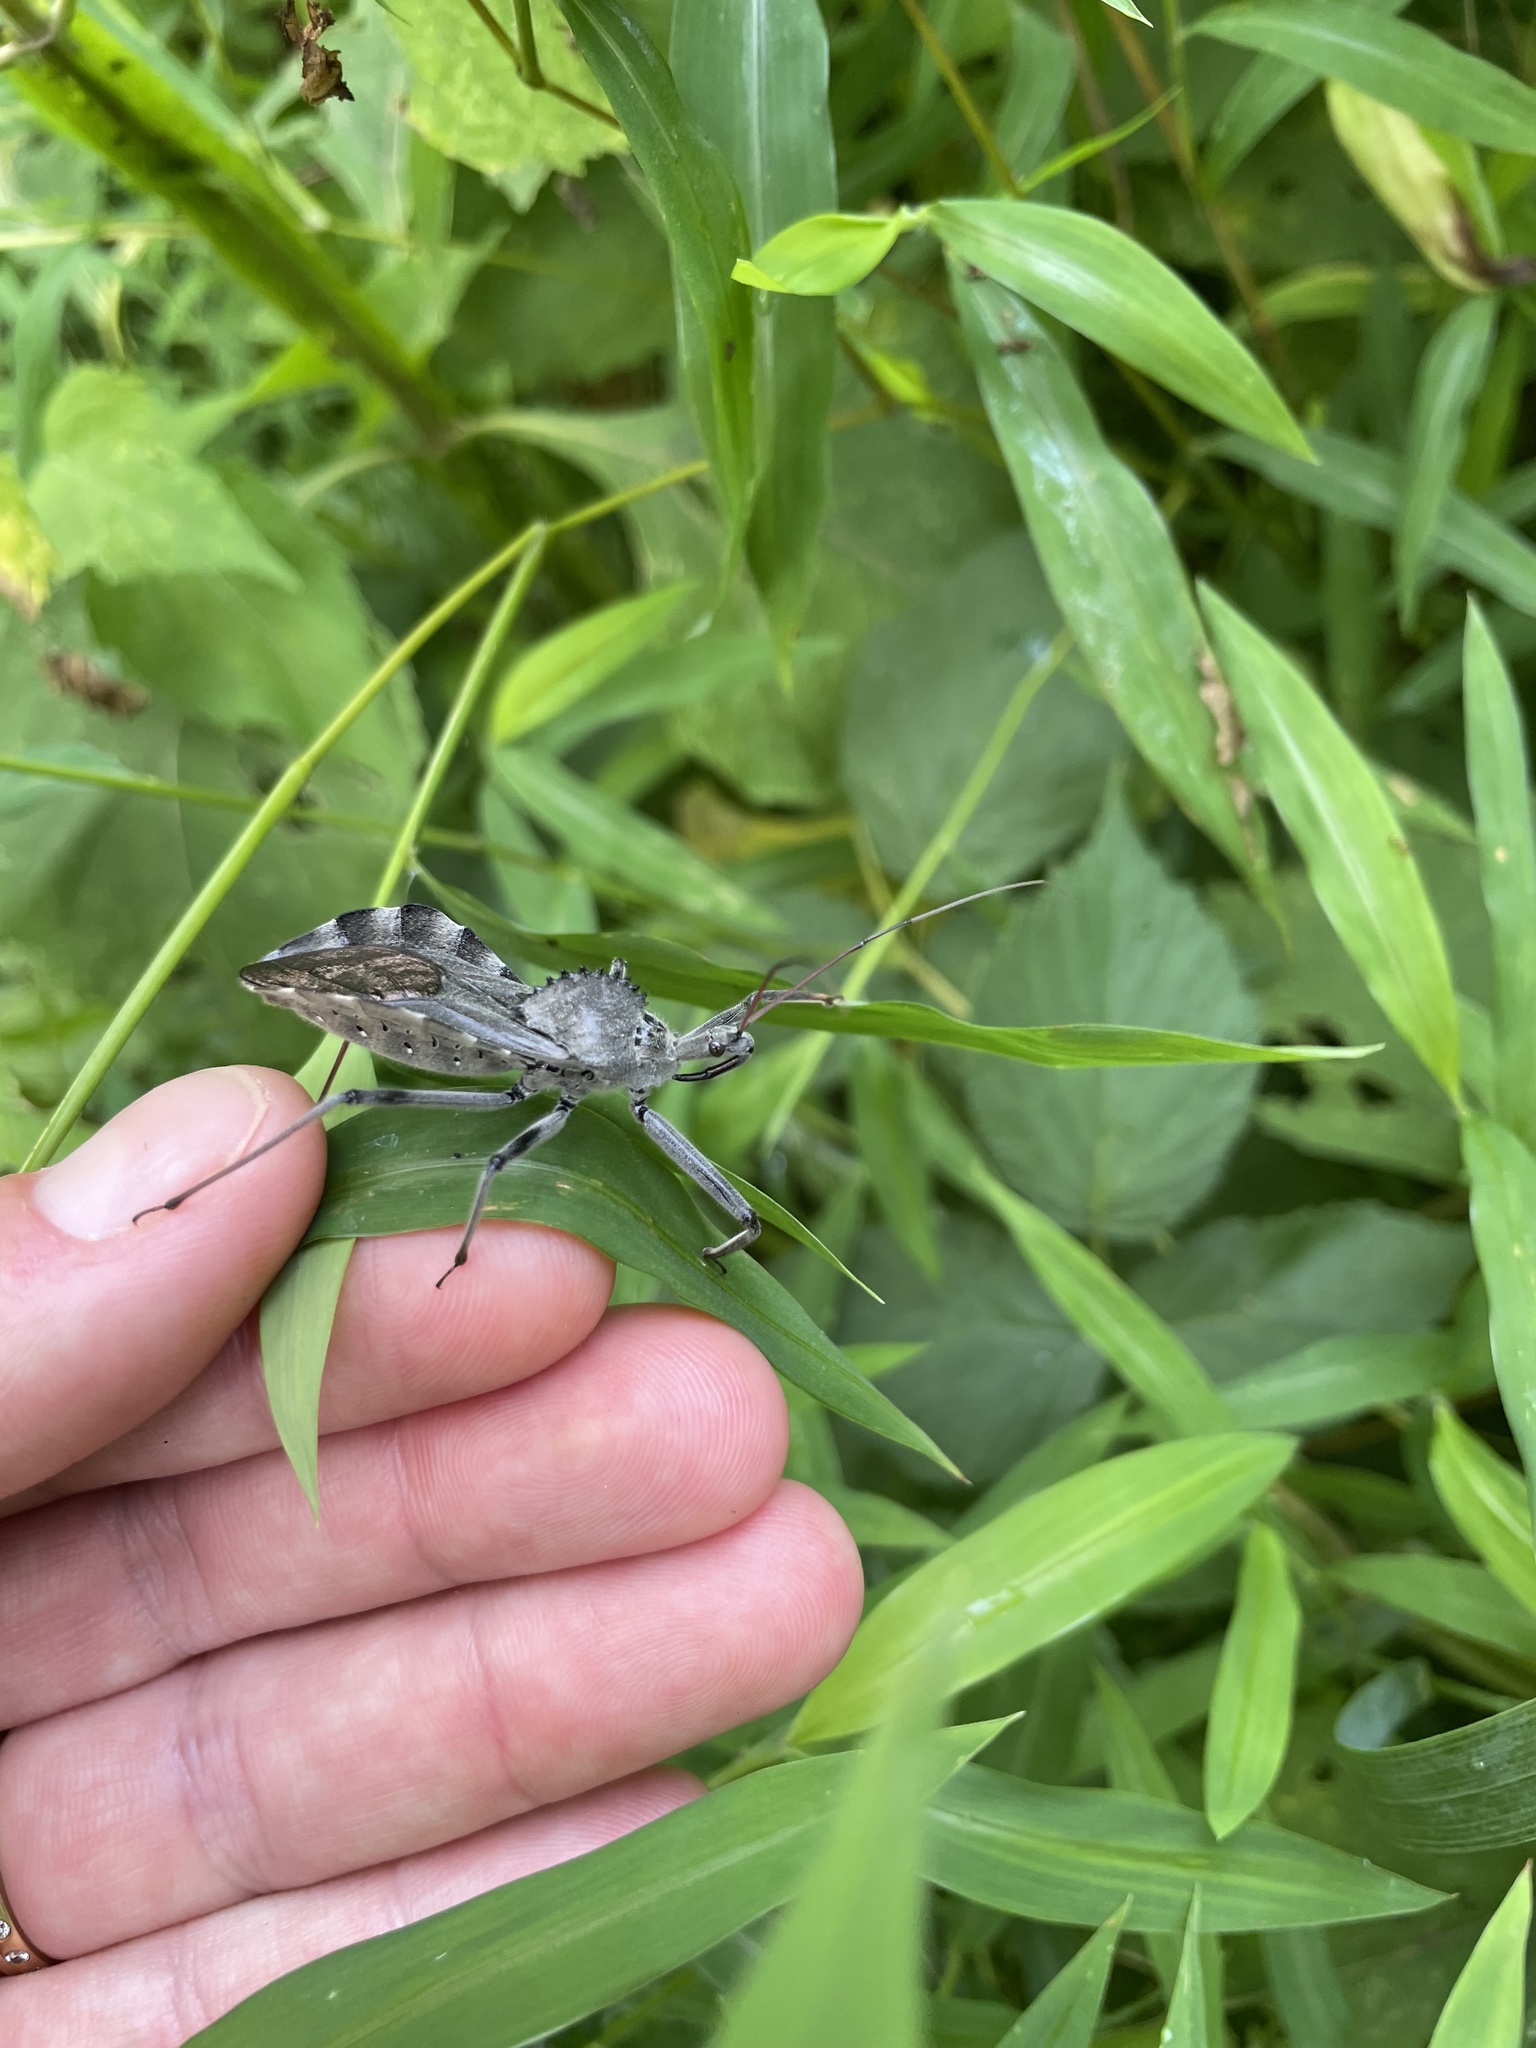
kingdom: Animalia
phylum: Arthropoda
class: Insecta
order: Hemiptera
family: Reduviidae
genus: Arilus
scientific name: Arilus cristatus
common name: North american wheel bug
